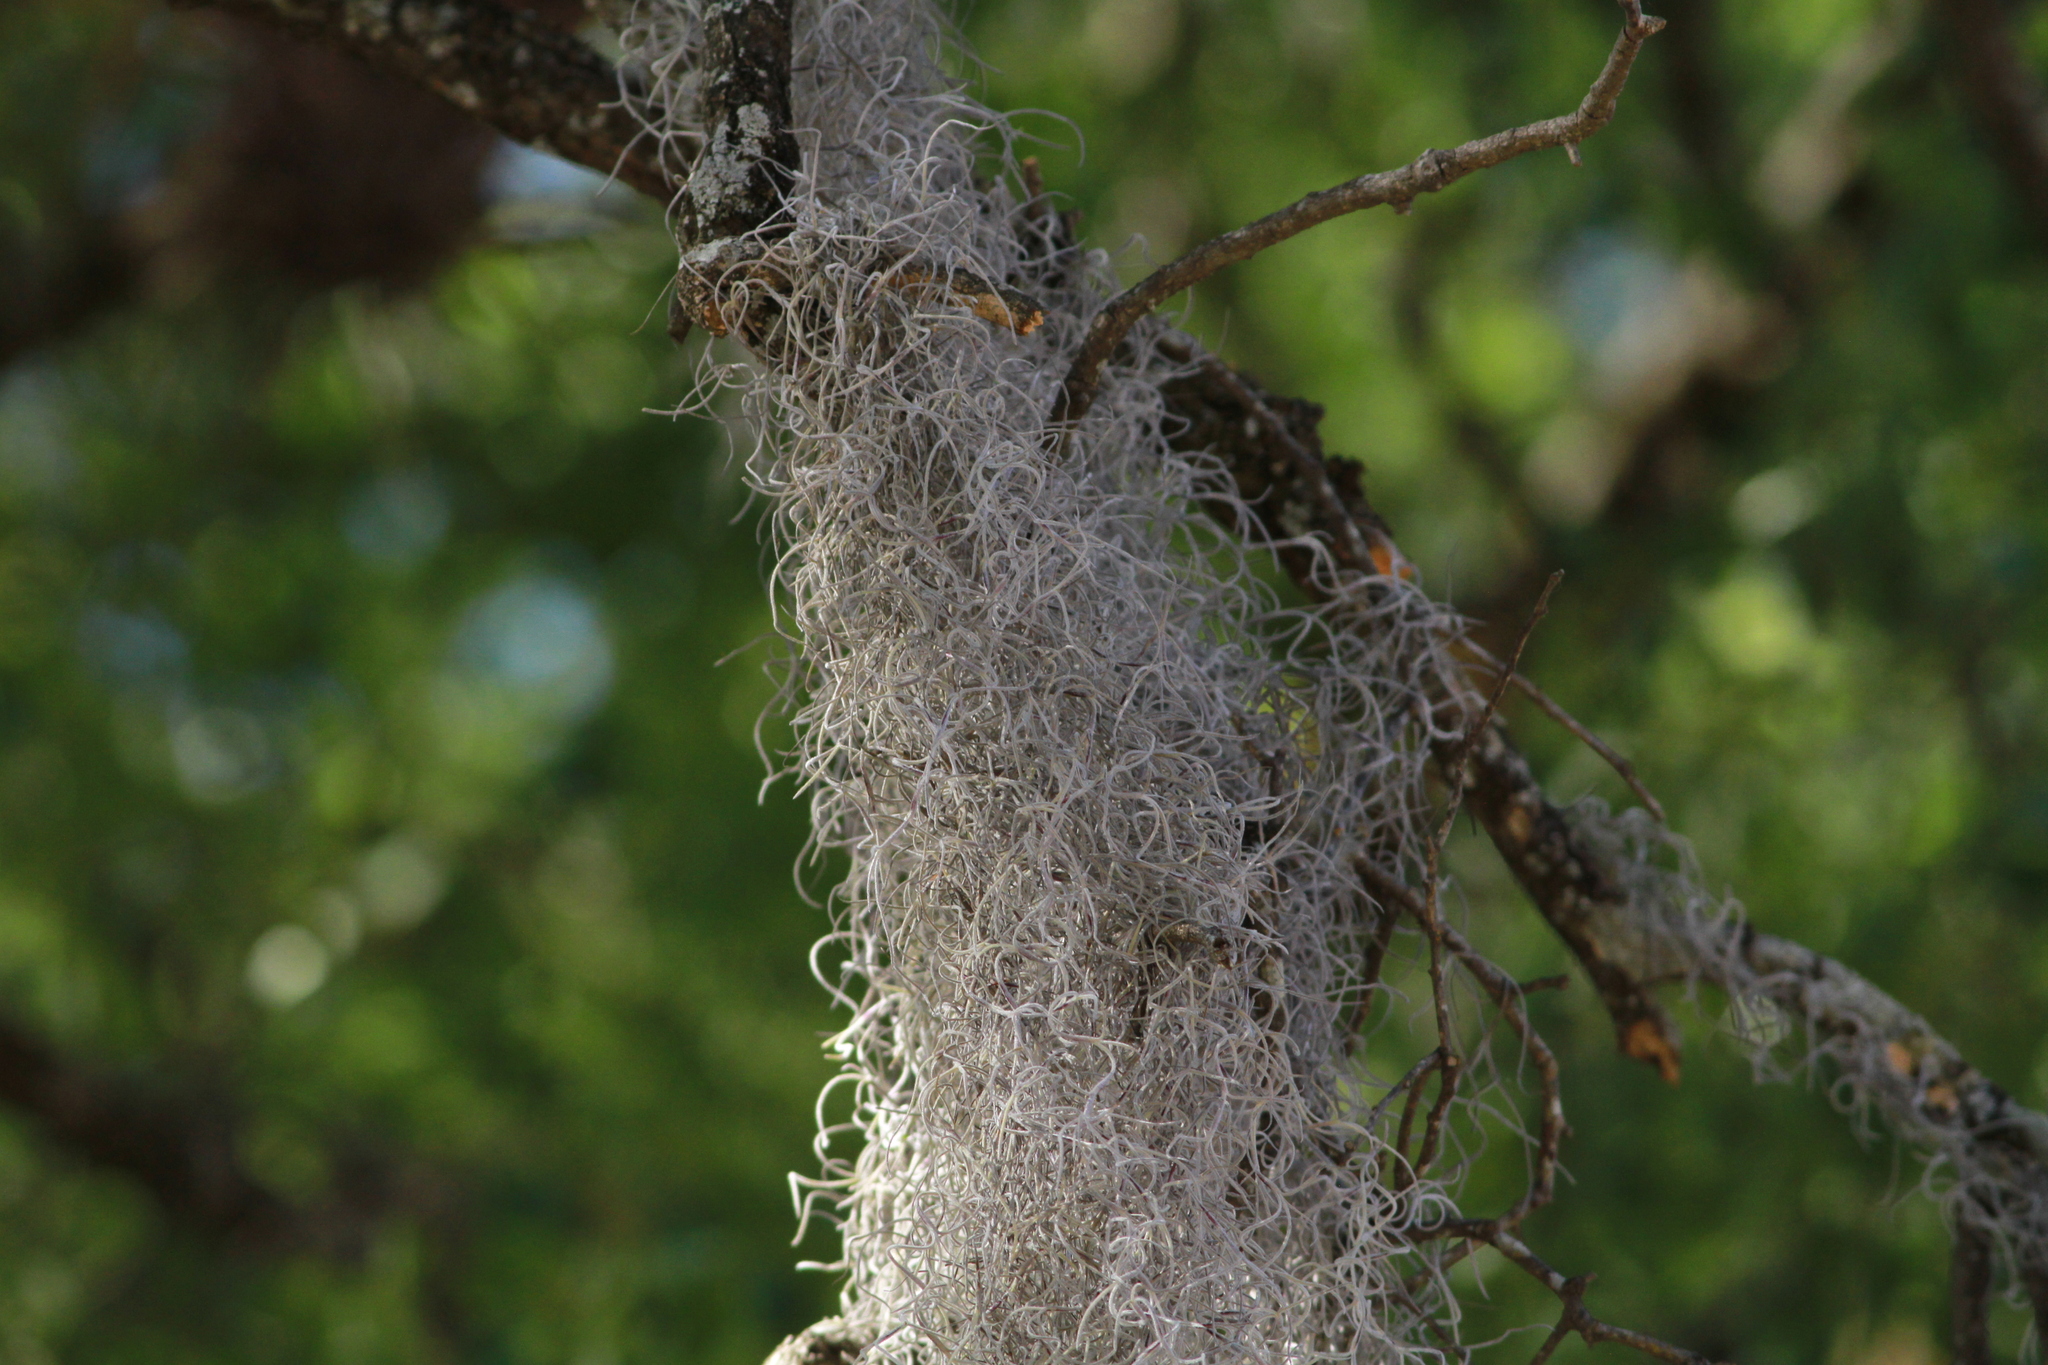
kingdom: Plantae
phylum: Tracheophyta
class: Liliopsida
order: Poales
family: Bromeliaceae
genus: Tillandsia
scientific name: Tillandsia usneoides
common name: Spanish moss
